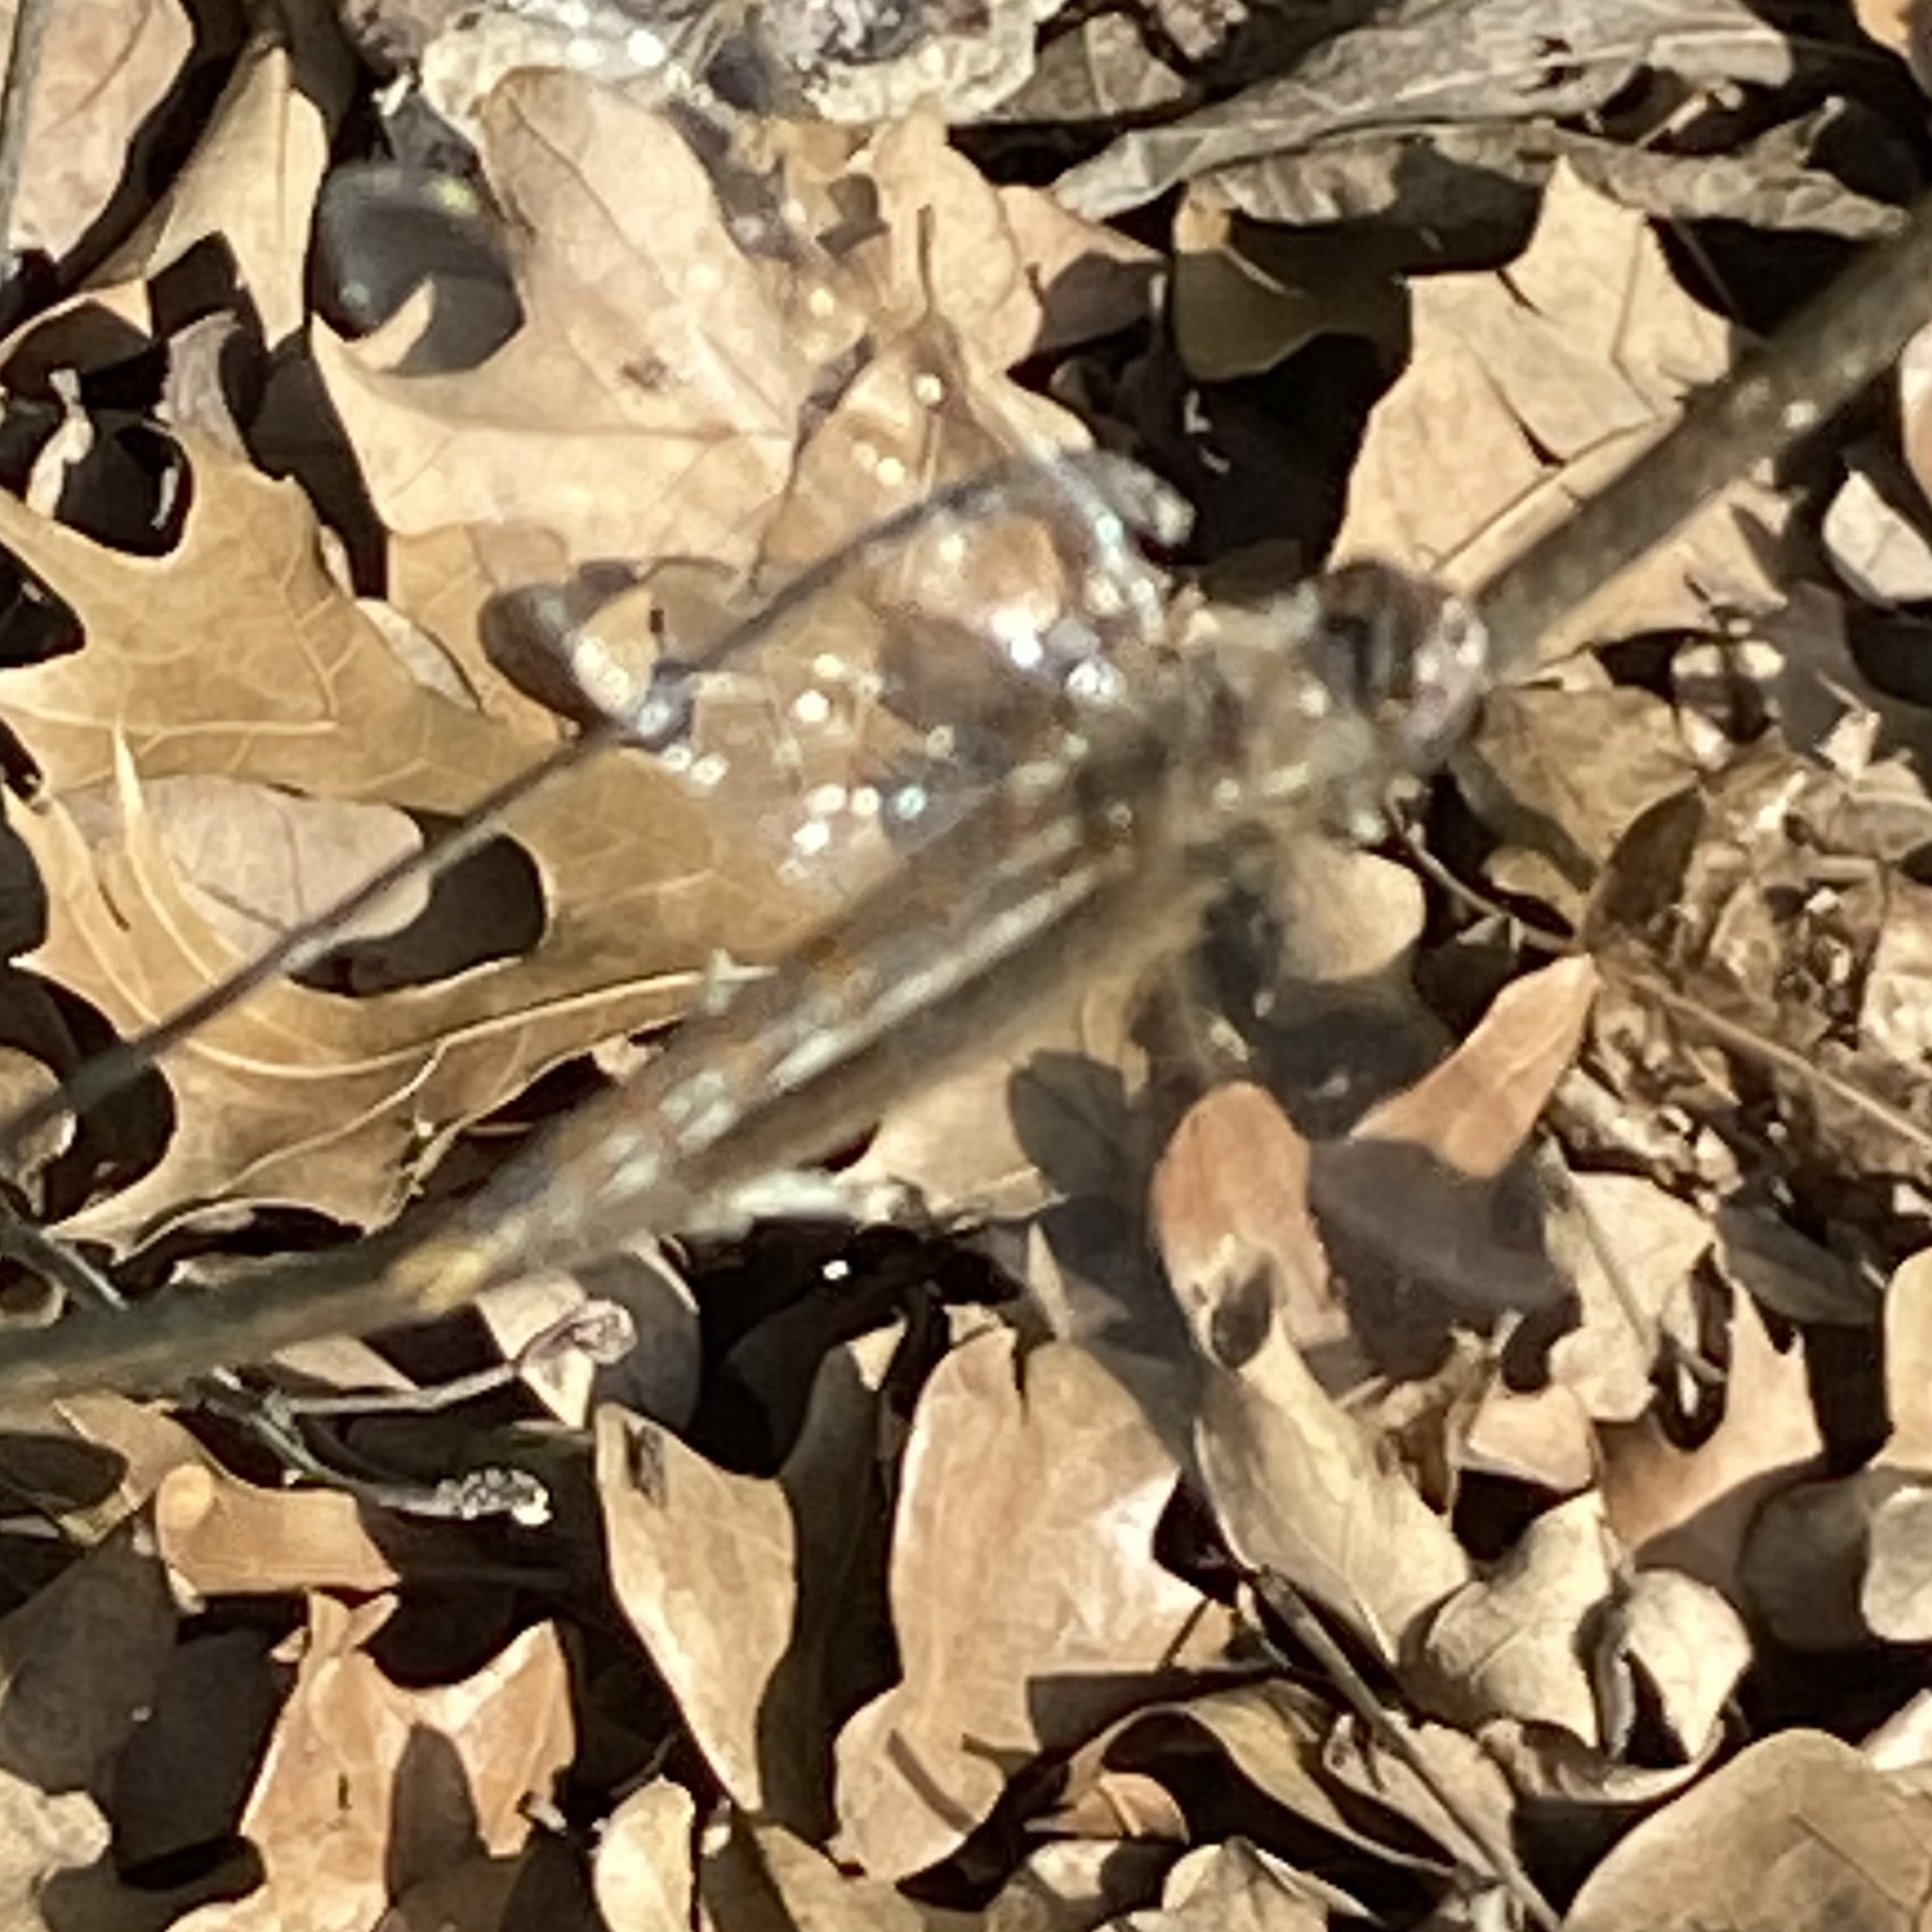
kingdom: Animalia
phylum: Arthropoda
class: Insecta
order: Odonata
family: Libellulidae
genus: Sympetrum
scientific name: Sympetrum corruptum
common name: Variegated meadowhawk
